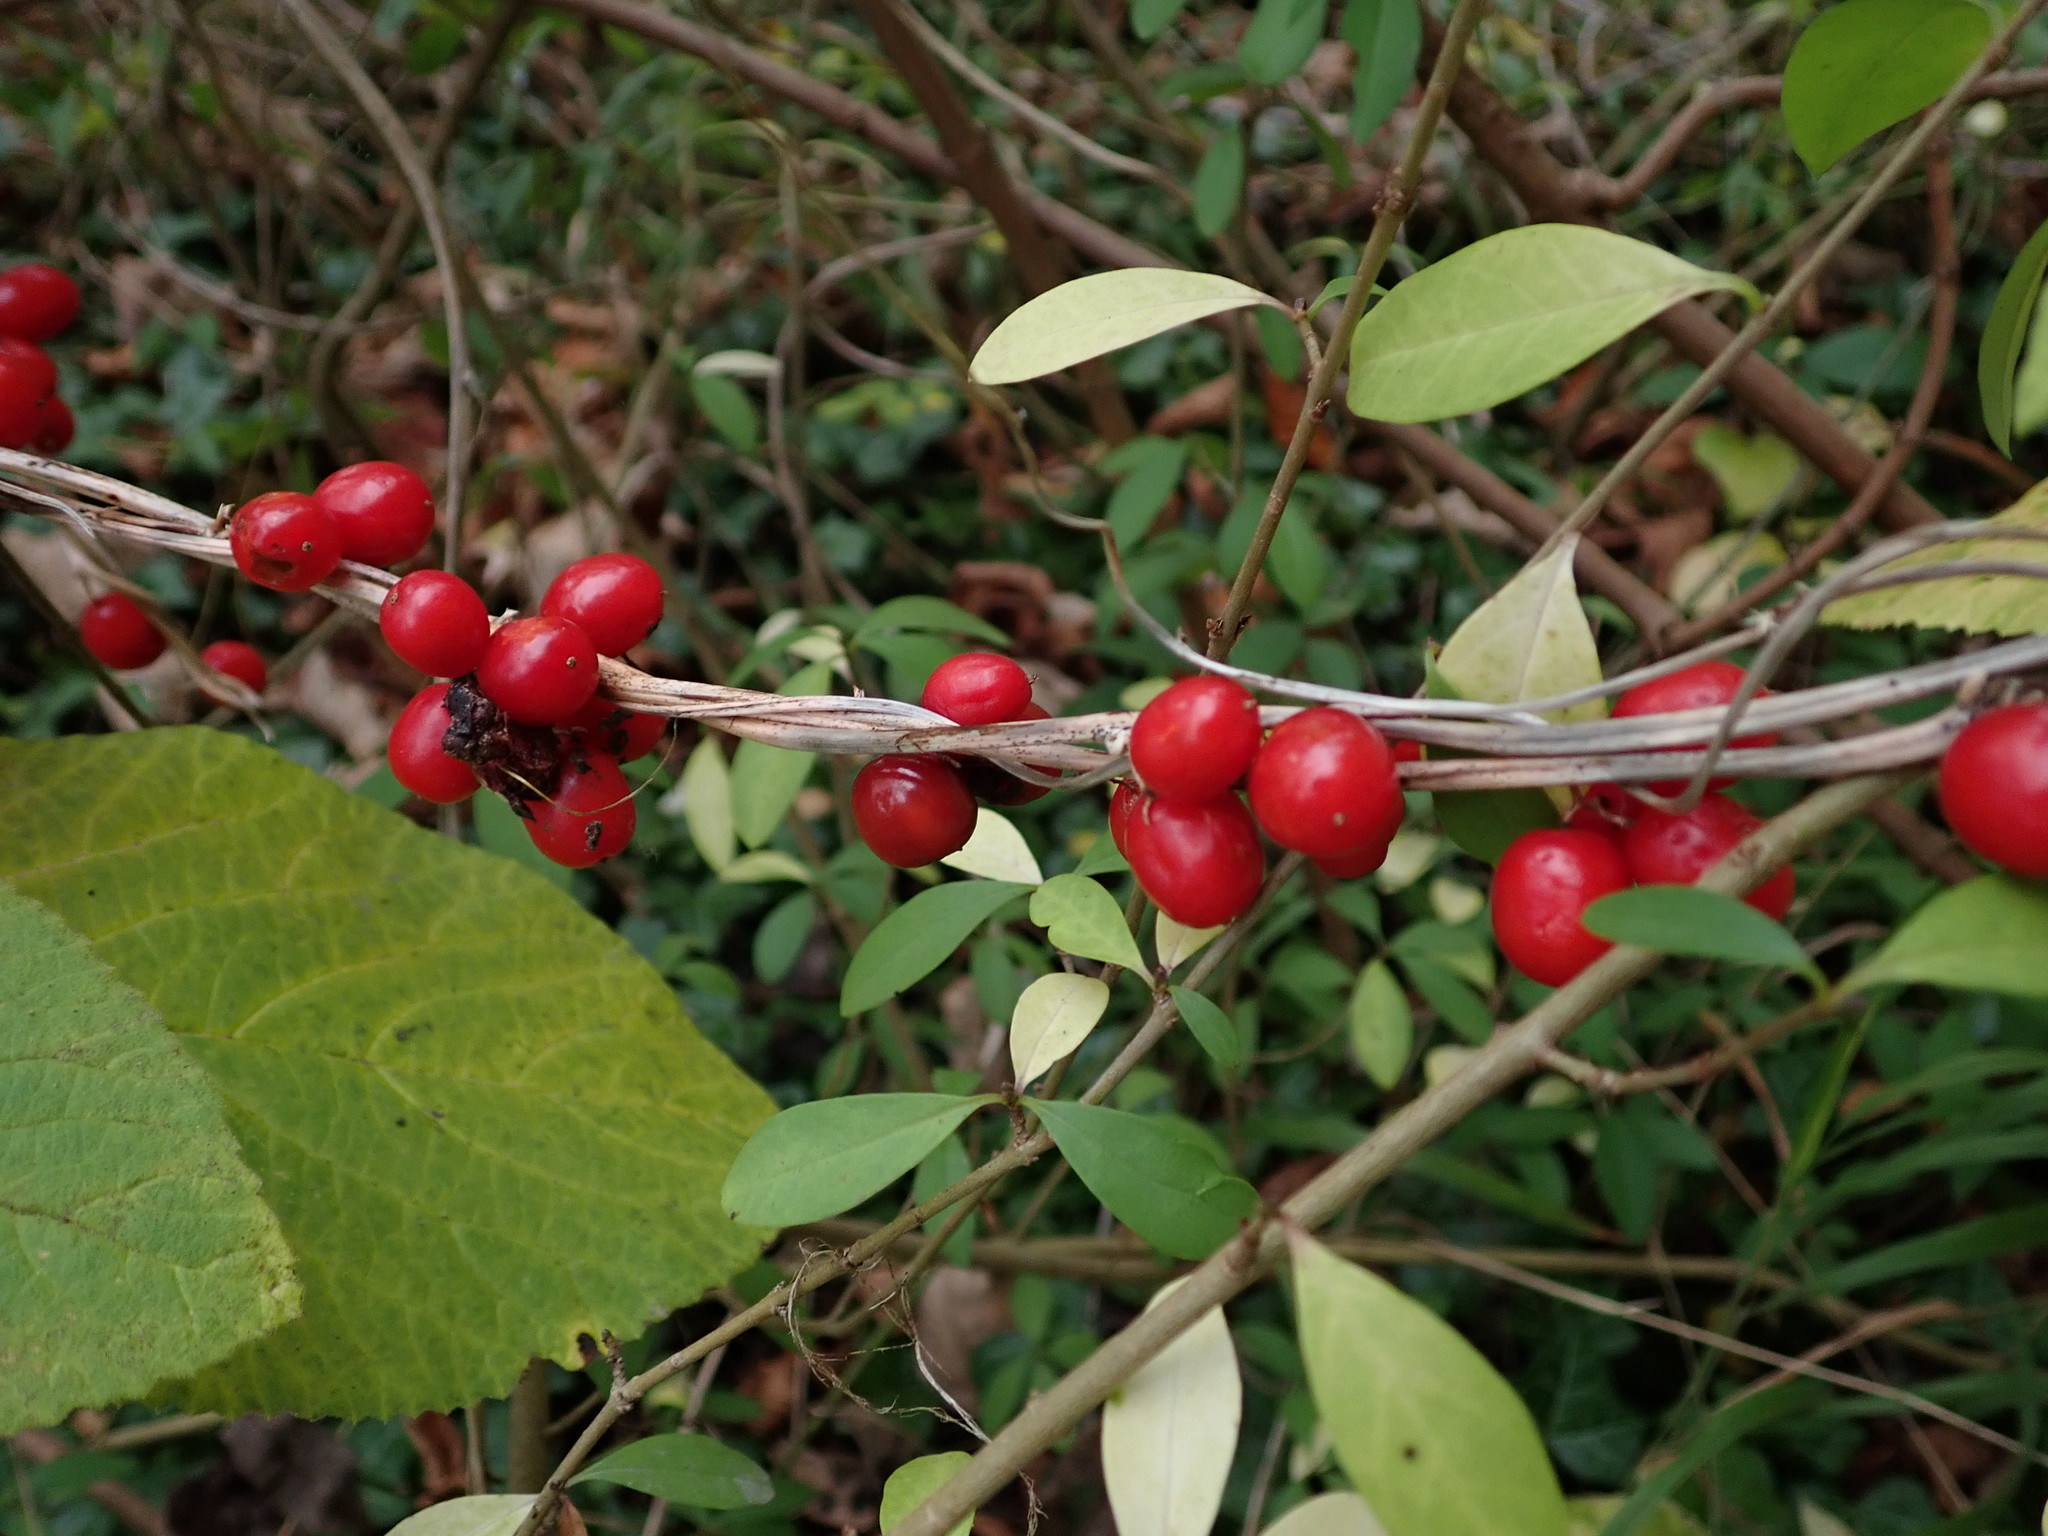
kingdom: Plantae
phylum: Tracheophyta
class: Liliopsida
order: Dioscoreales
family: Dioscoreaceae
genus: Dioscorea
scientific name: Dioscorea communis
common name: Black-bindweed
